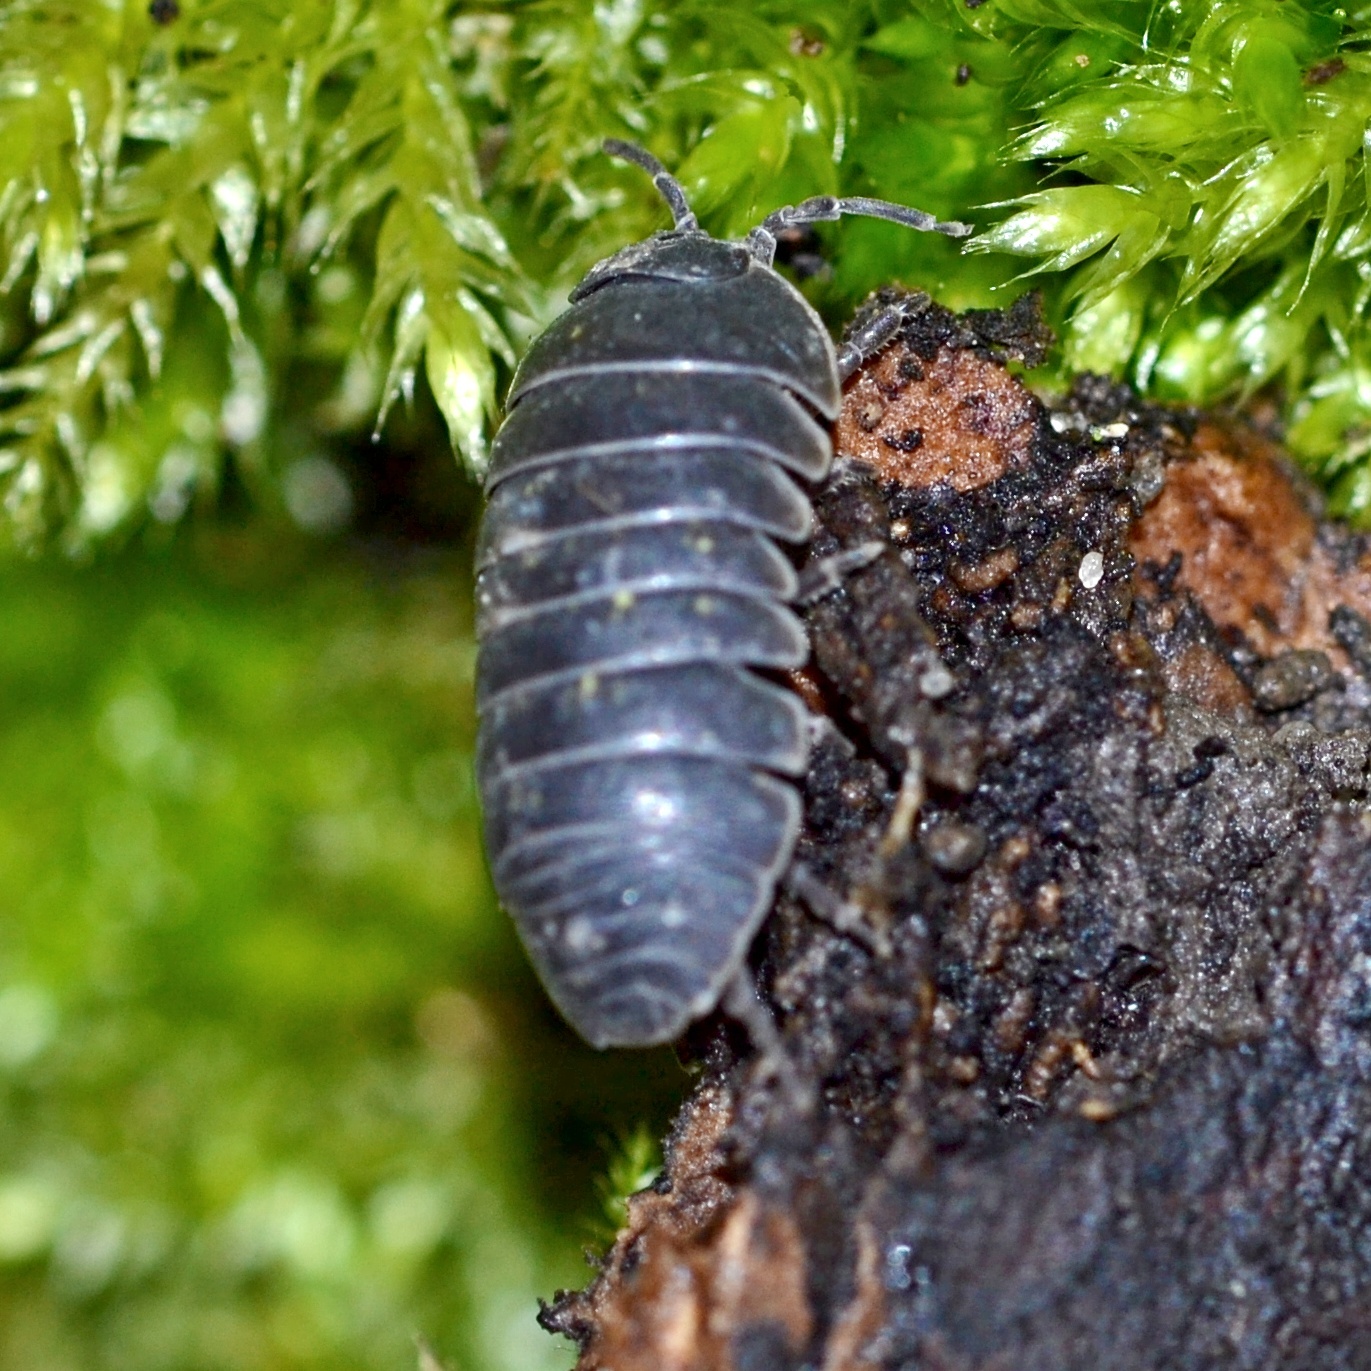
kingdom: Animalia
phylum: Arthropoda
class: Malacostraca
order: Isopoda
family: Armadillidiidae
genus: Armadillidium
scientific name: Armadillidium vulgare
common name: Common pill woodlouse
